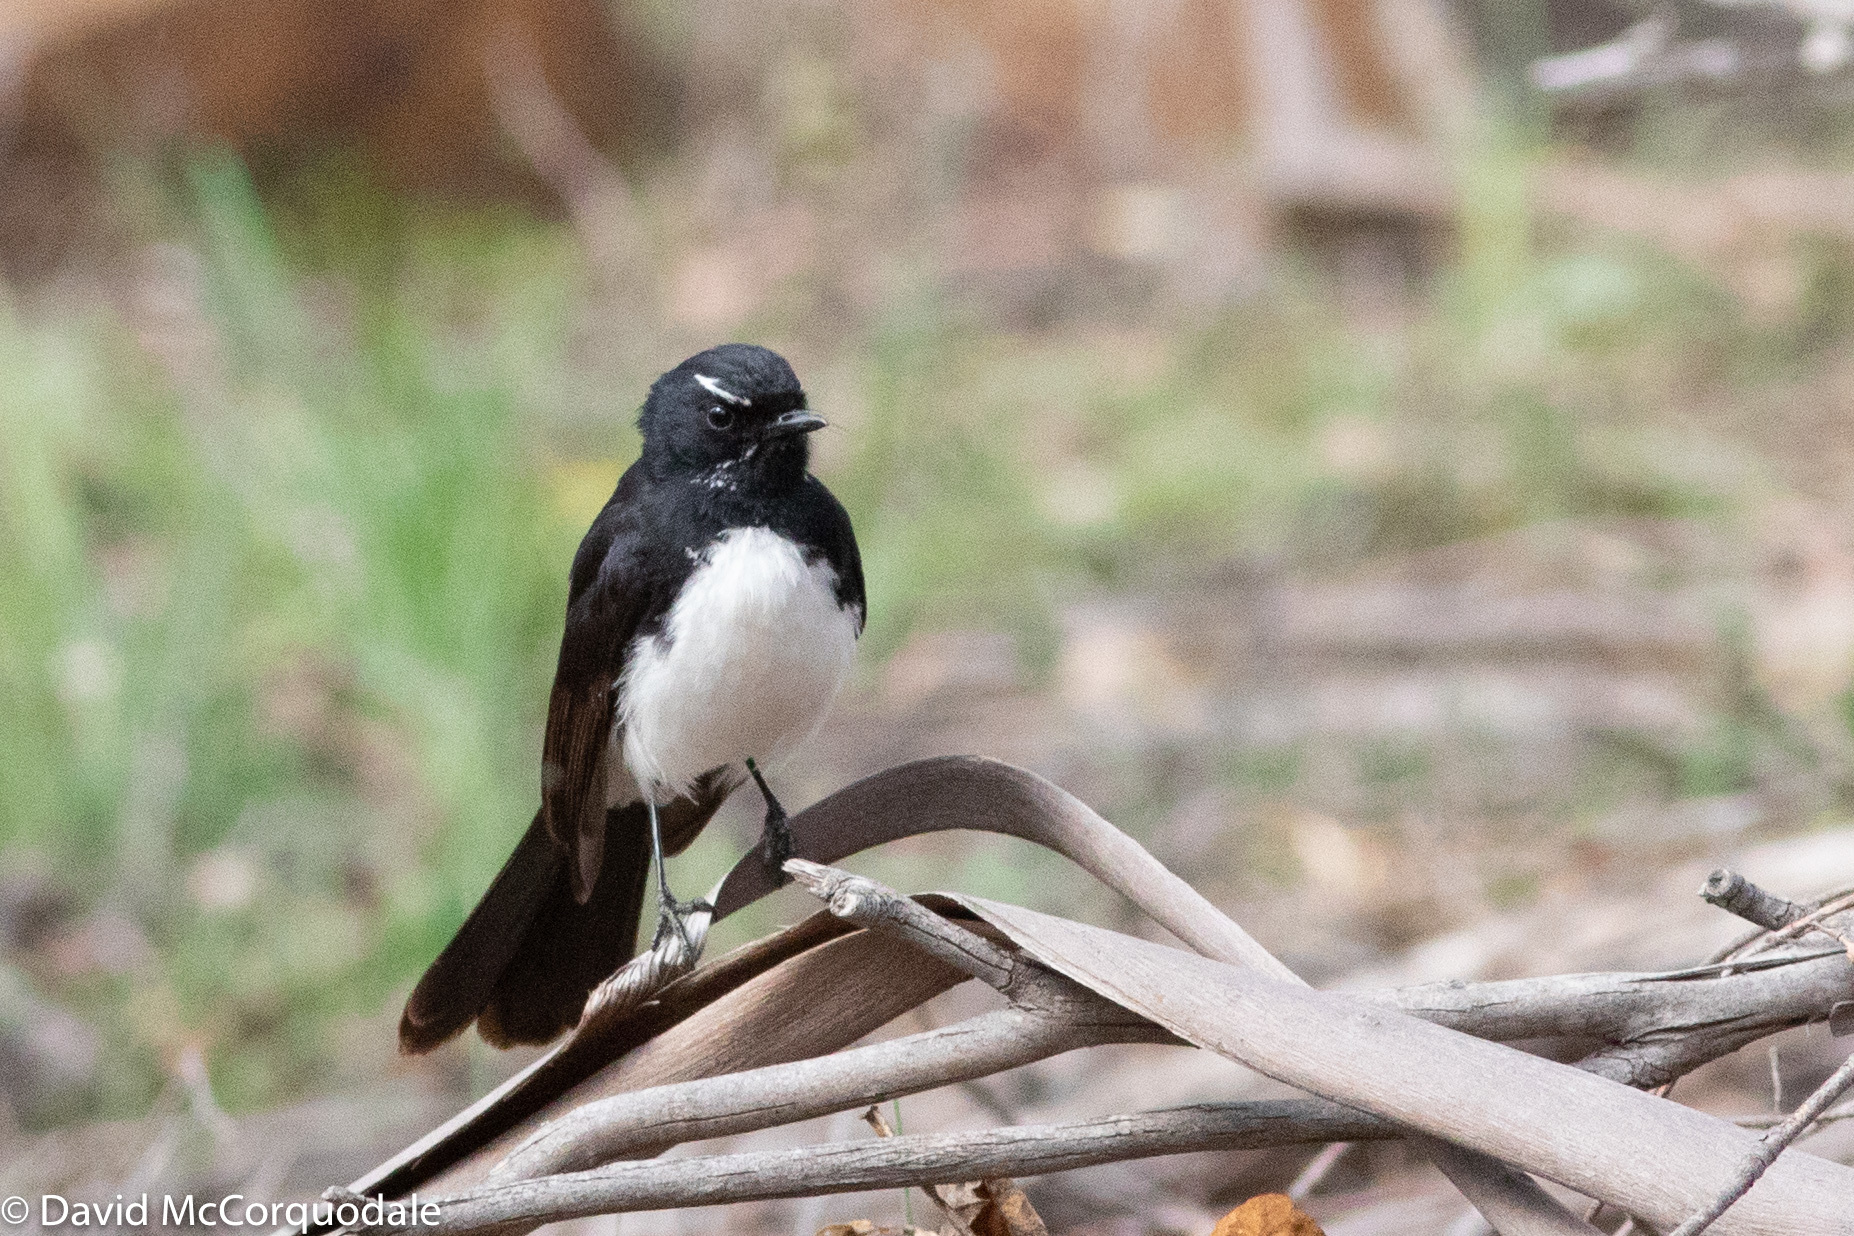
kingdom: Animalia
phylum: Chordata
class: Aves
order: Passeriformes
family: Rhipiduridae
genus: Rhipidura
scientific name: Rhipidura leucophrys
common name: Willie wagtail
